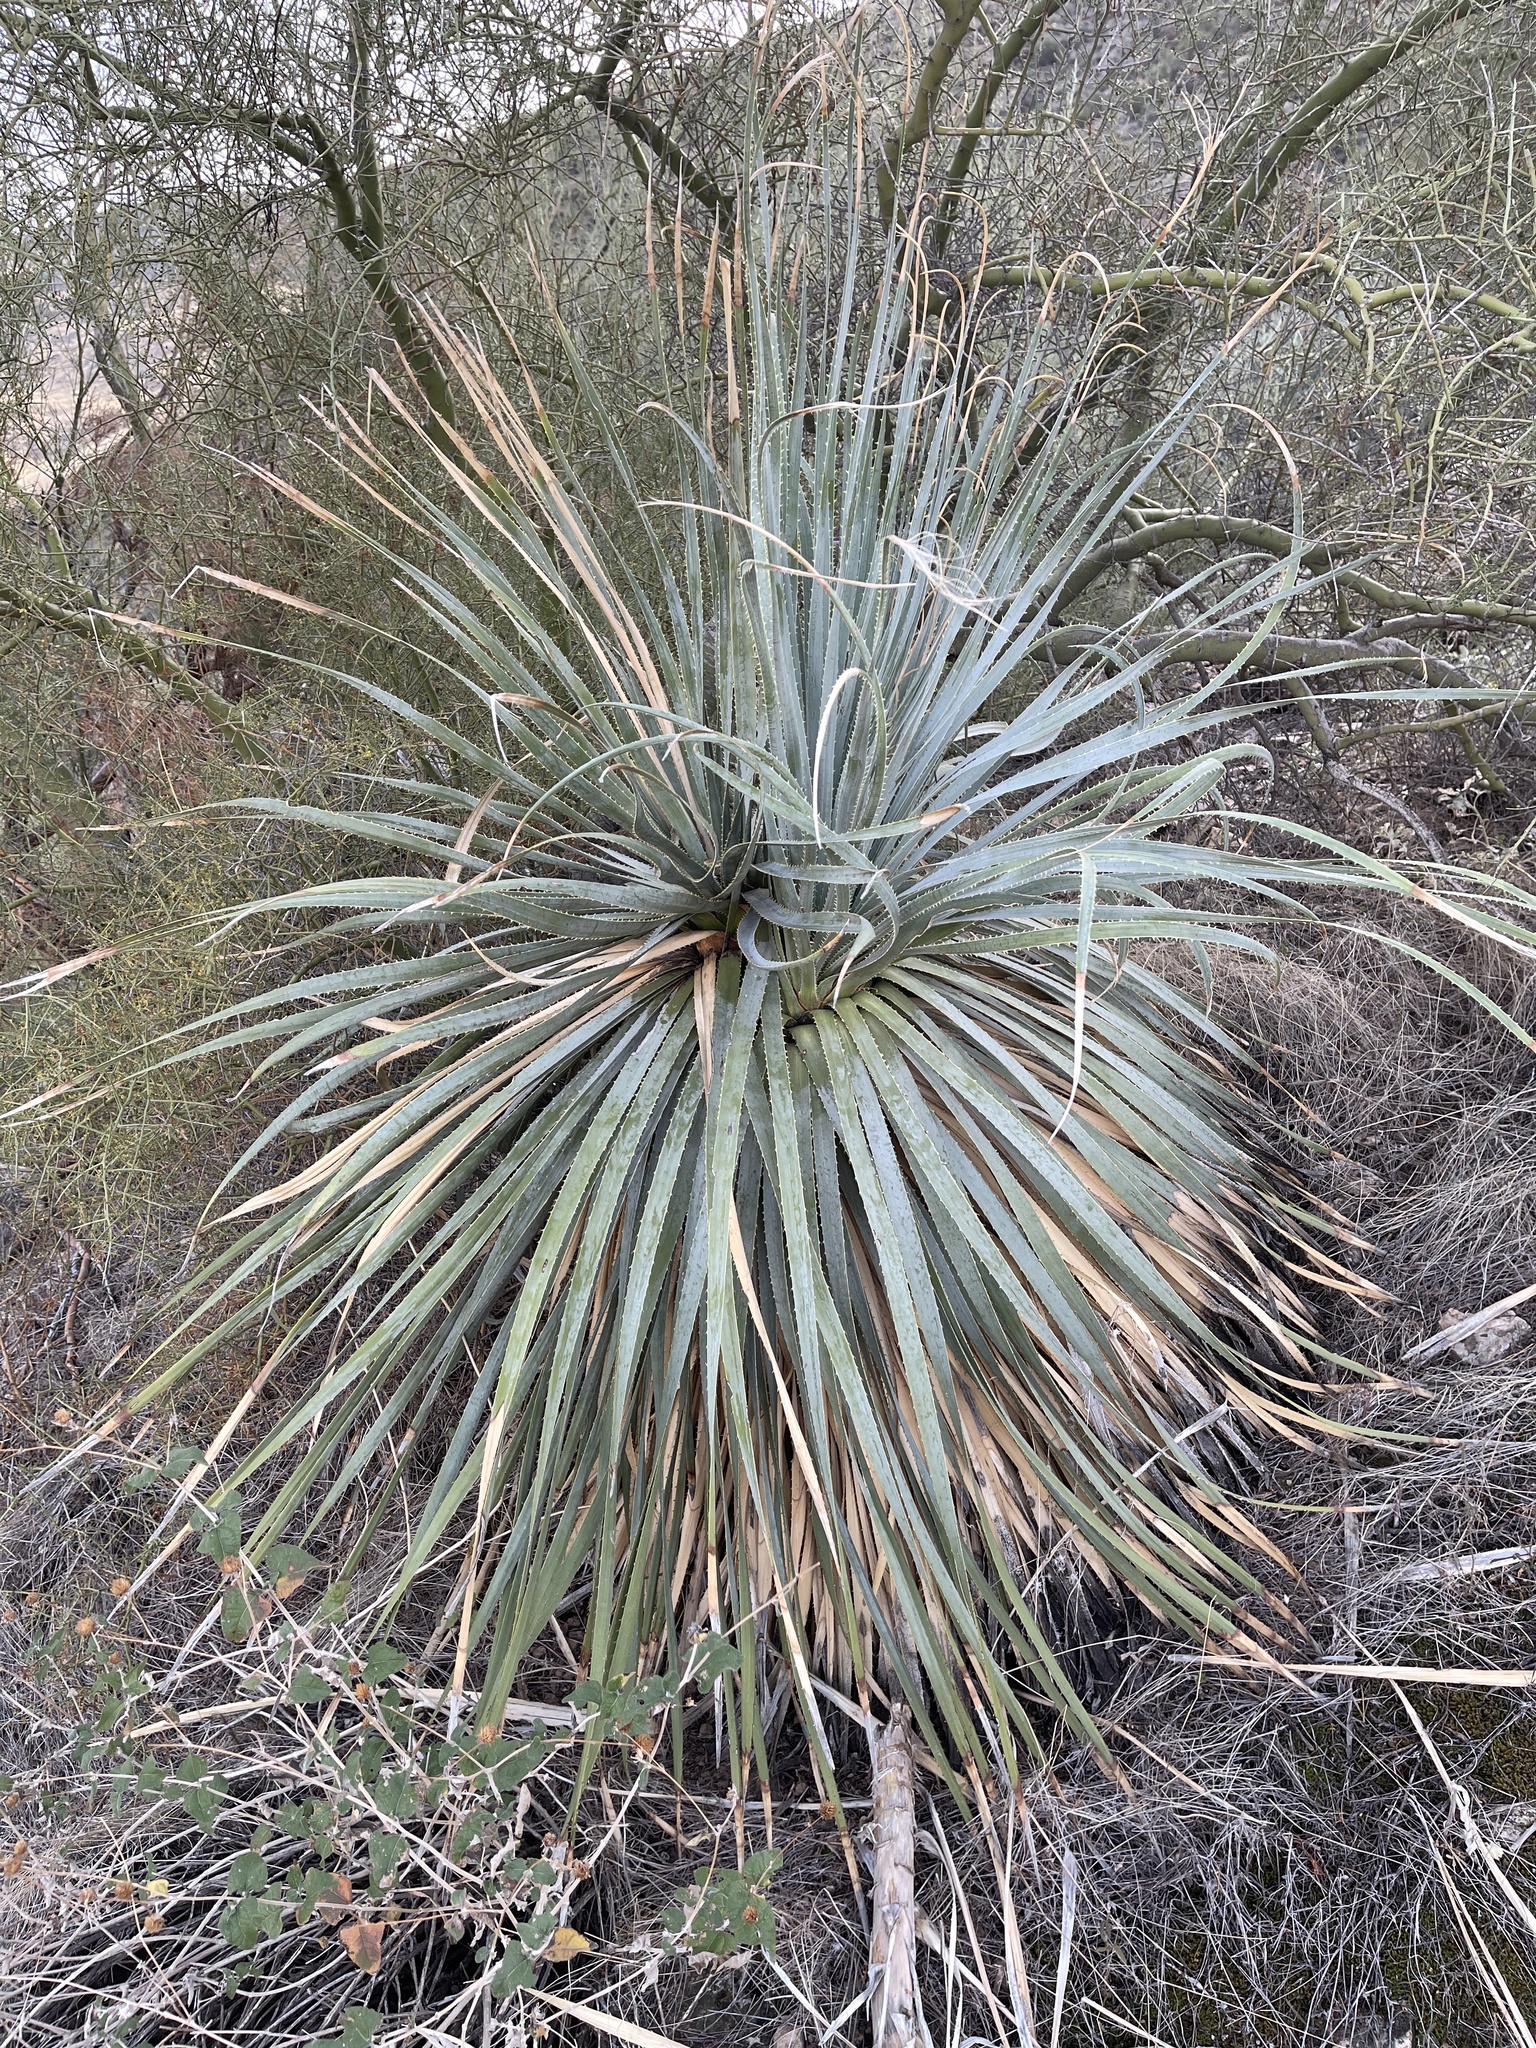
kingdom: Plantae
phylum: Tracheophyta
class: Liliopsida
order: Asparagales
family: Asparagaceae
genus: Dasylirion
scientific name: Dasylirion wheeleri
